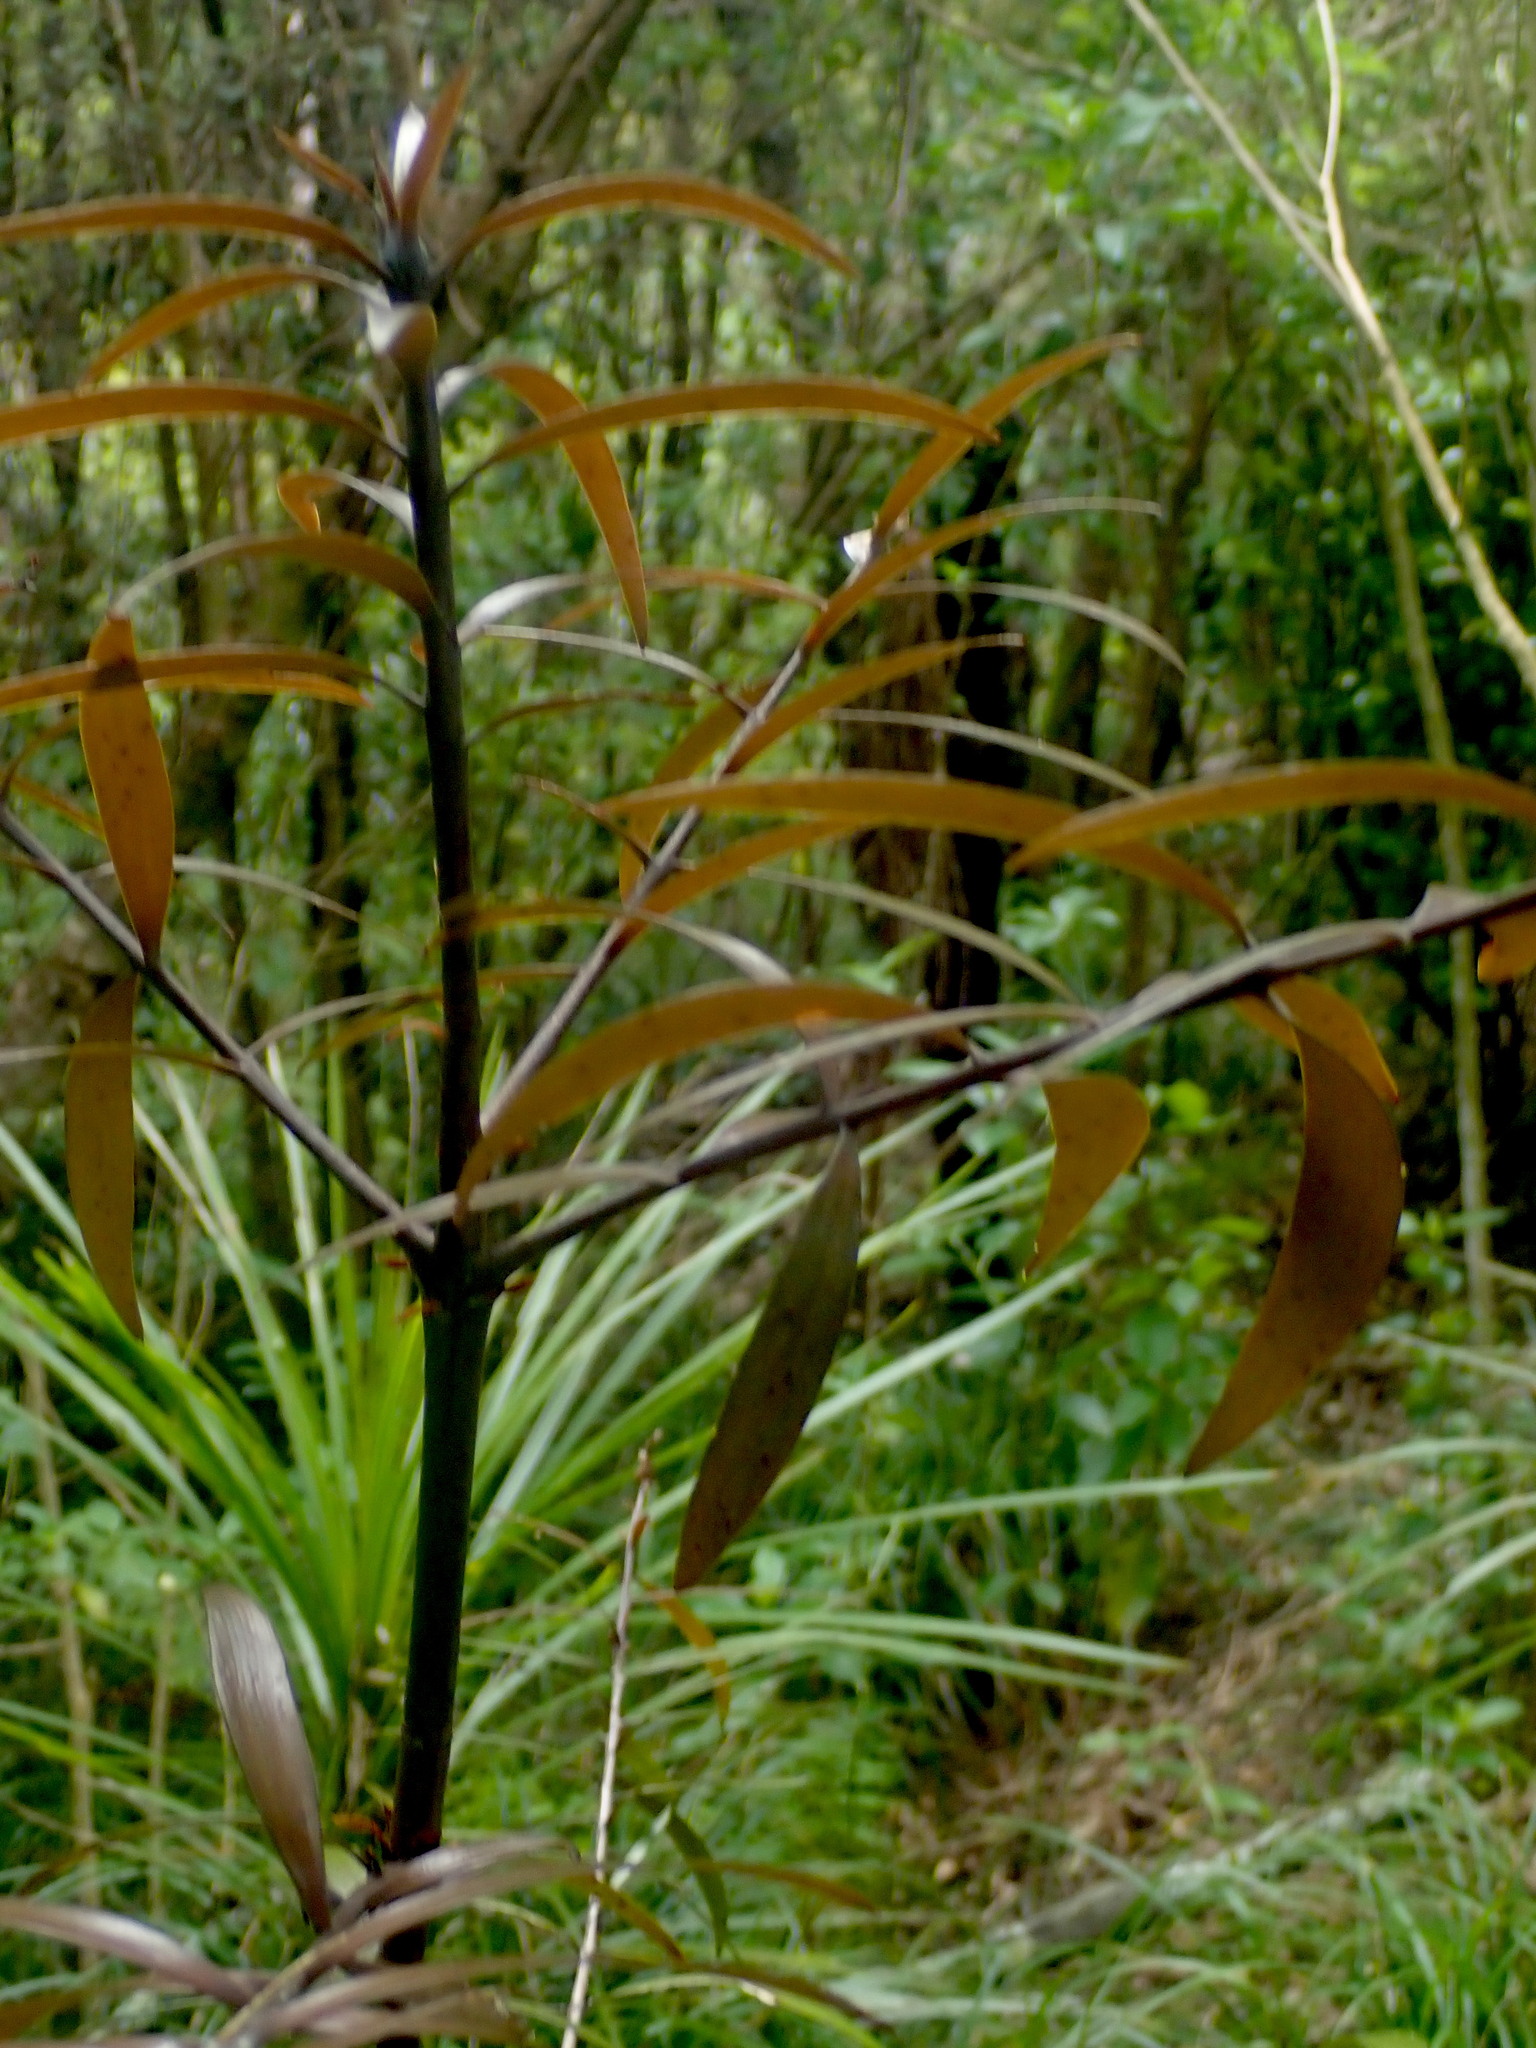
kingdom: Plantae
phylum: Tracheophyta
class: Pinopsida
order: Pinales
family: Araucariaceae
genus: Agathis
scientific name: Agathis australis
